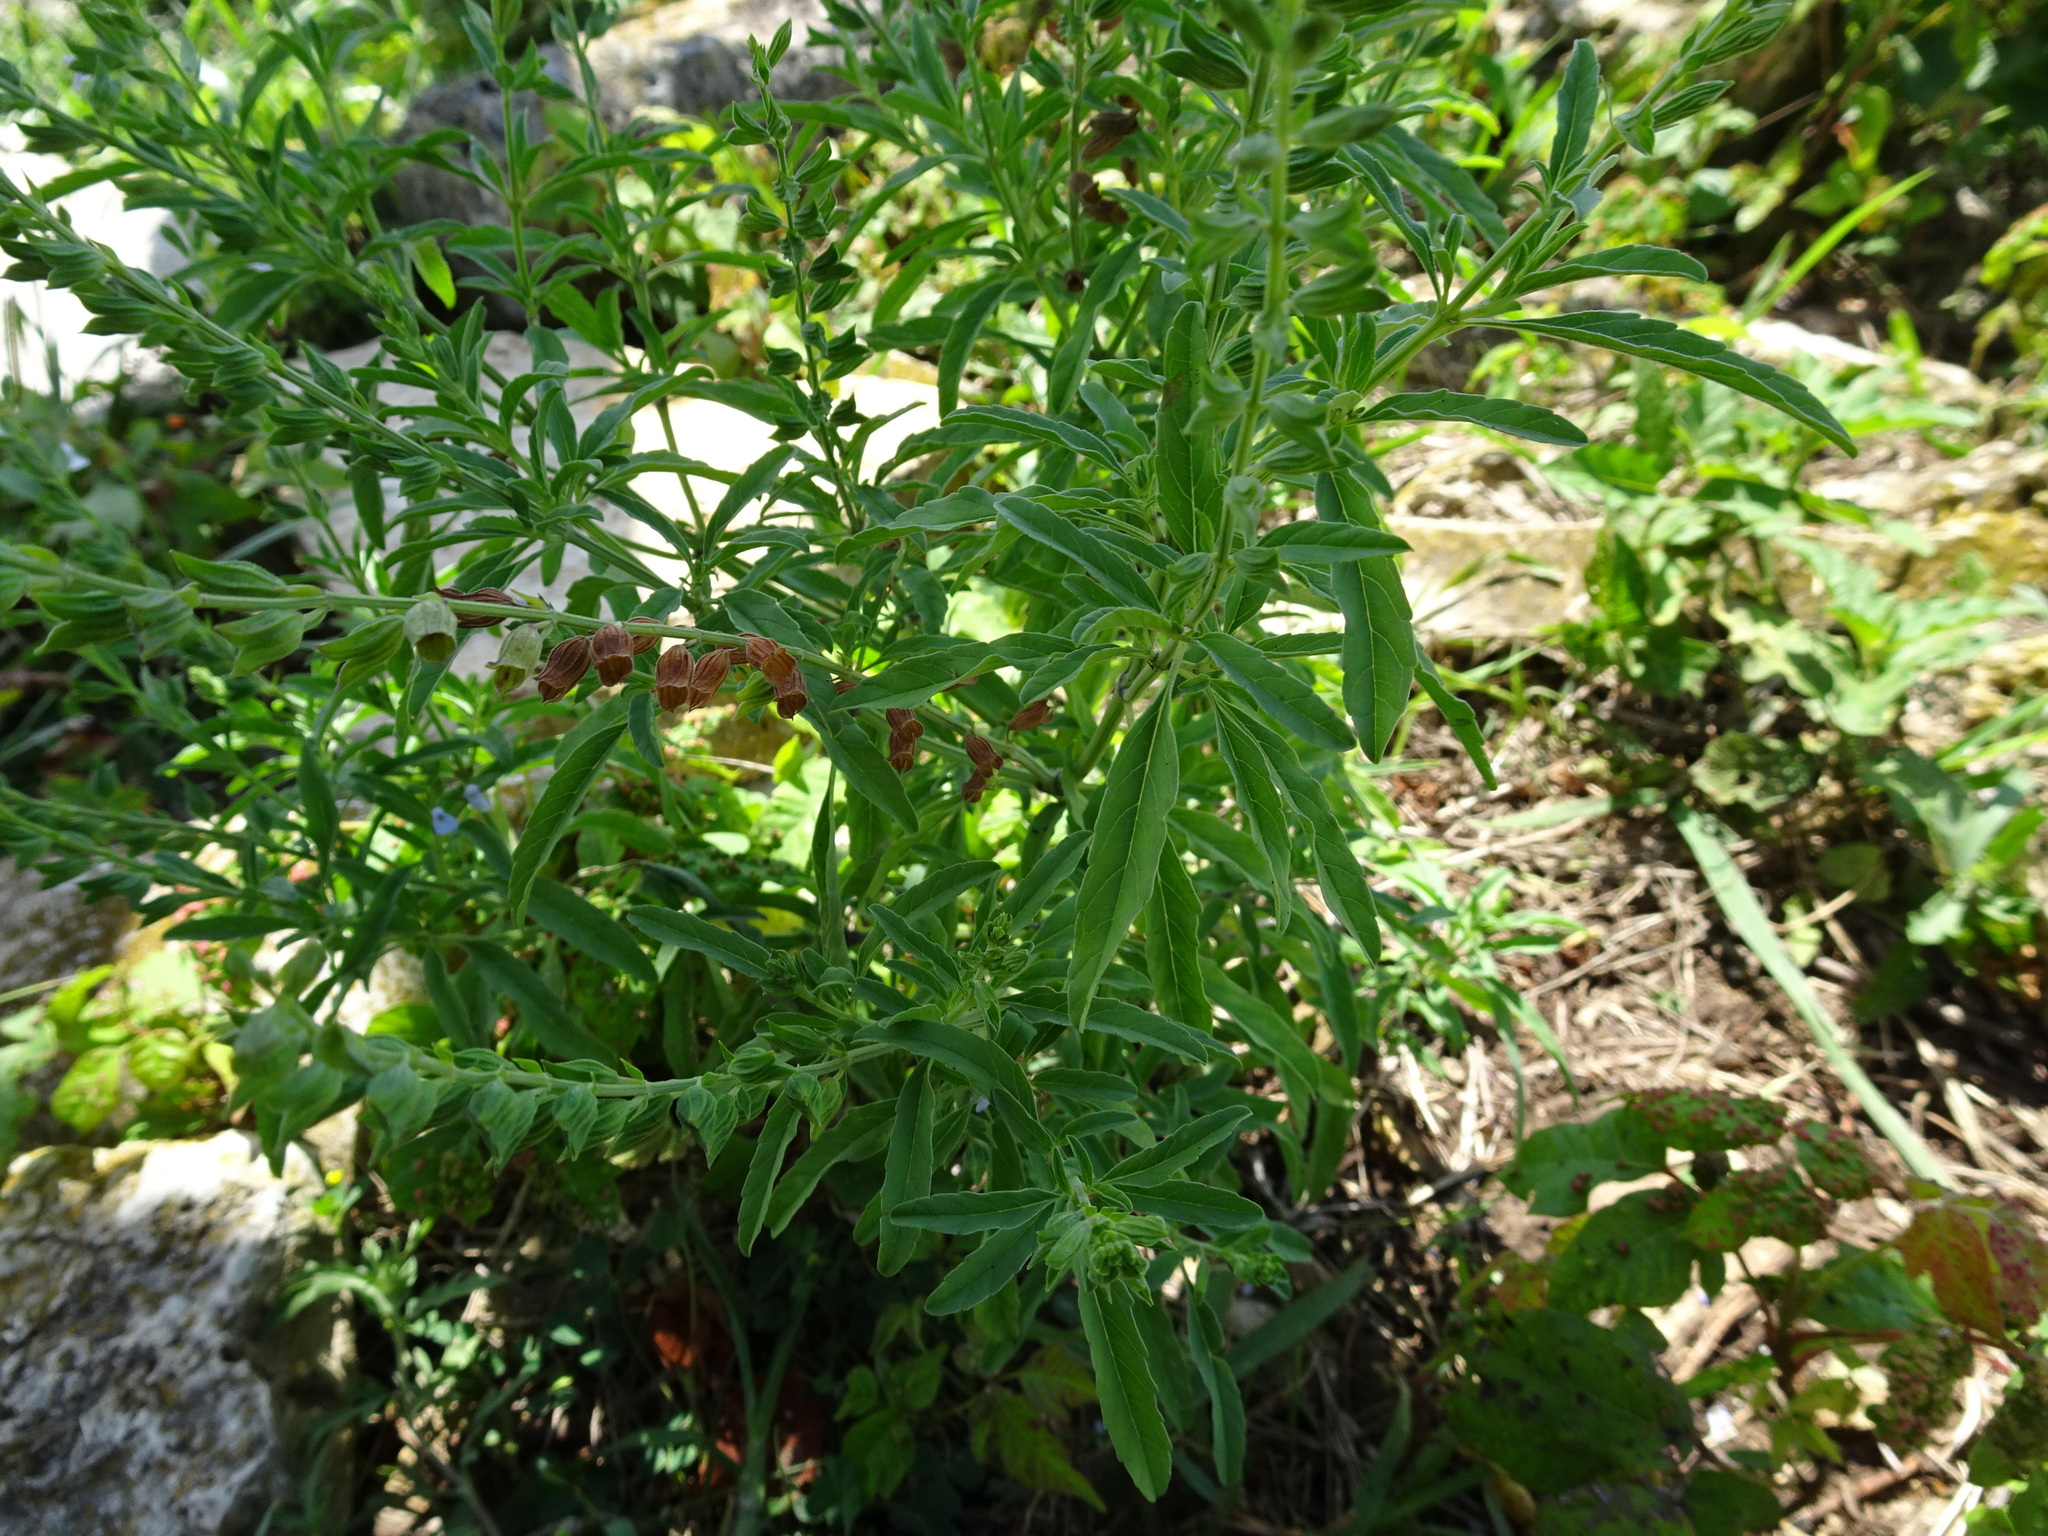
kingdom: Plantae
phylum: Tracheophyta
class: Magnoliopsida
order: Lamiales
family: Lamiaceae
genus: Salvia
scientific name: Salvia reflexa
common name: Mintweed
